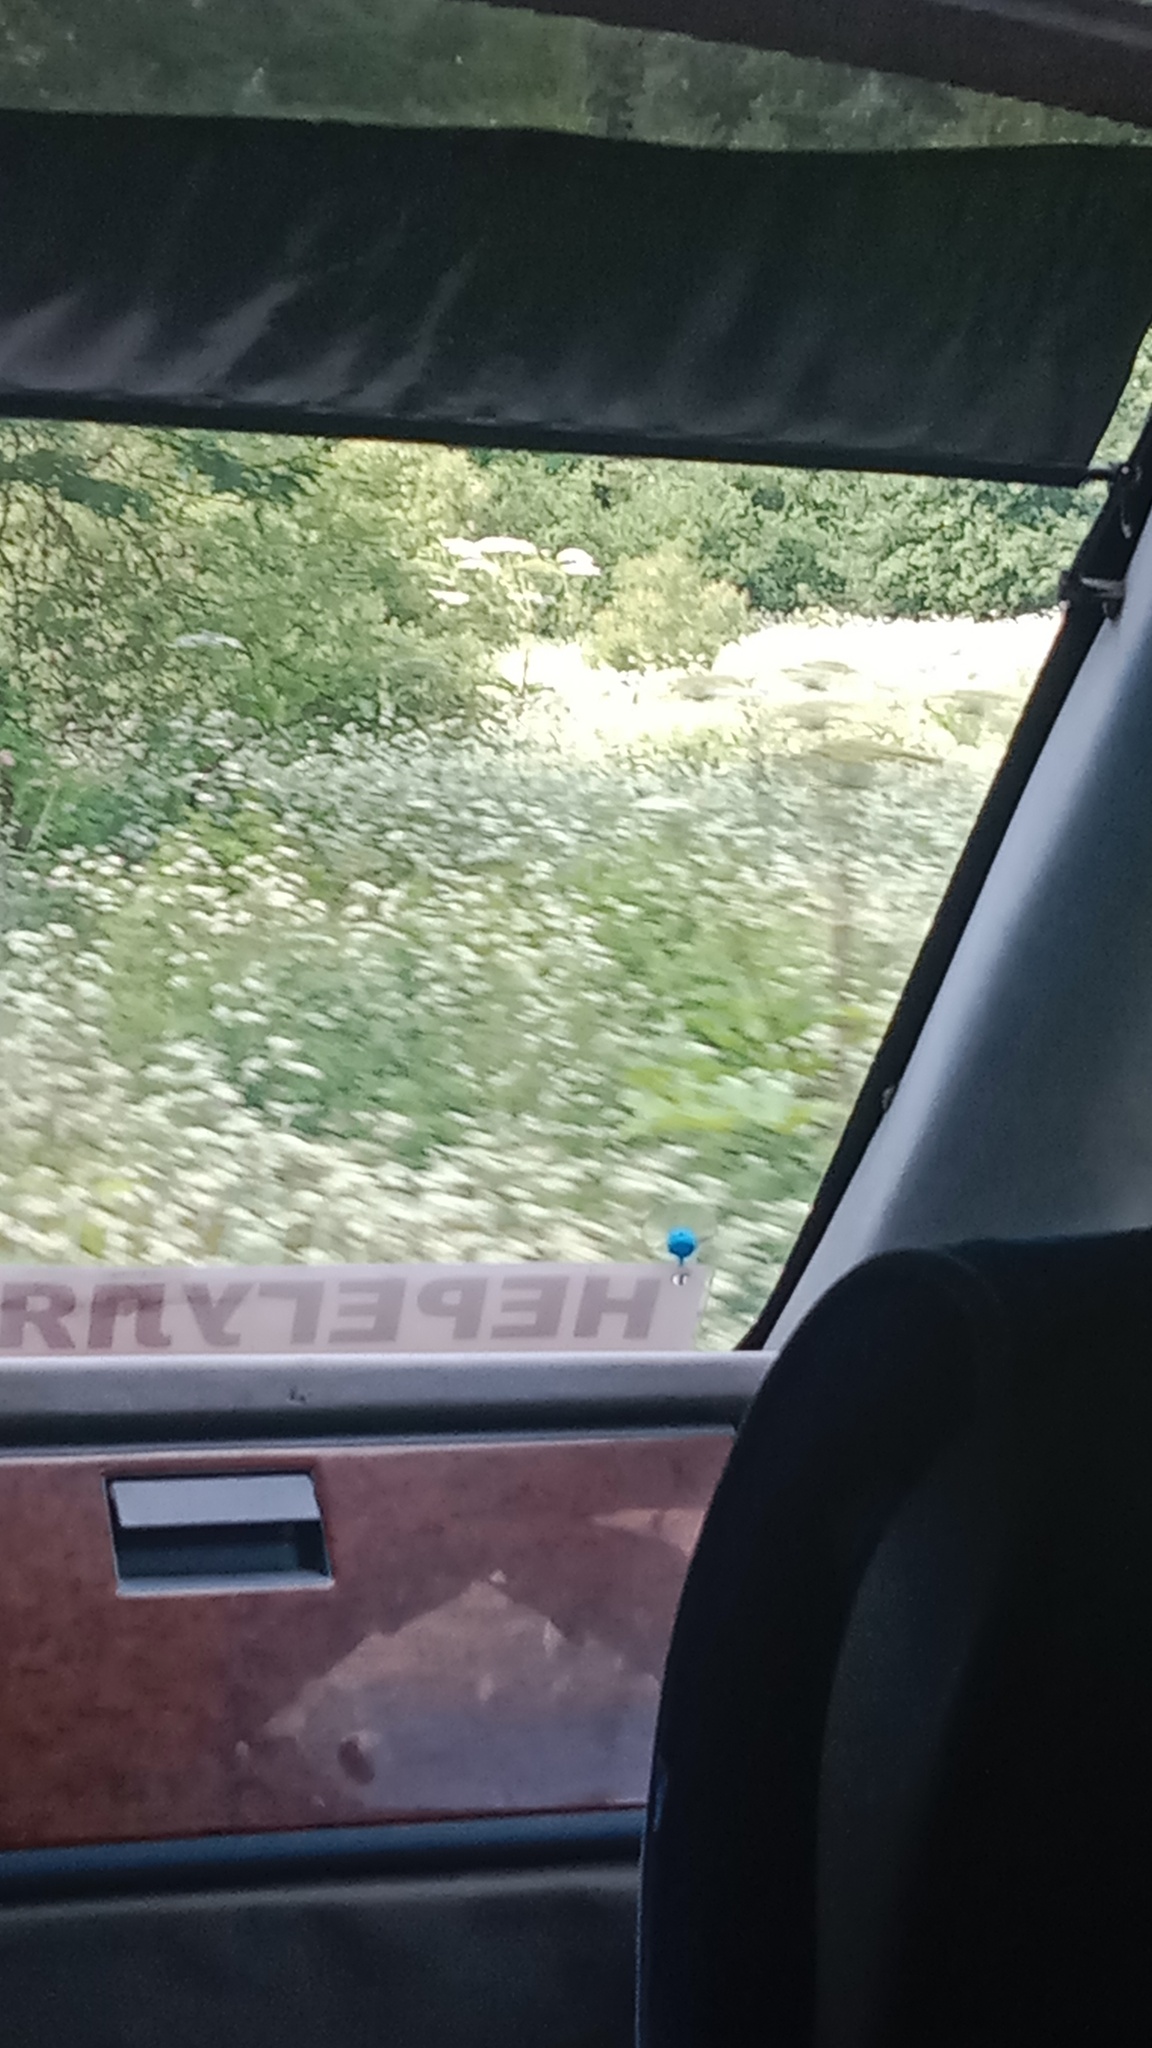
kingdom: Plantae
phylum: Tracheophyta
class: Magnoliopsida
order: Apiales
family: Apiaceae
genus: Heracleum
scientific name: Heracleum sosnowskyi
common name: Sosnowsky's hogweed
